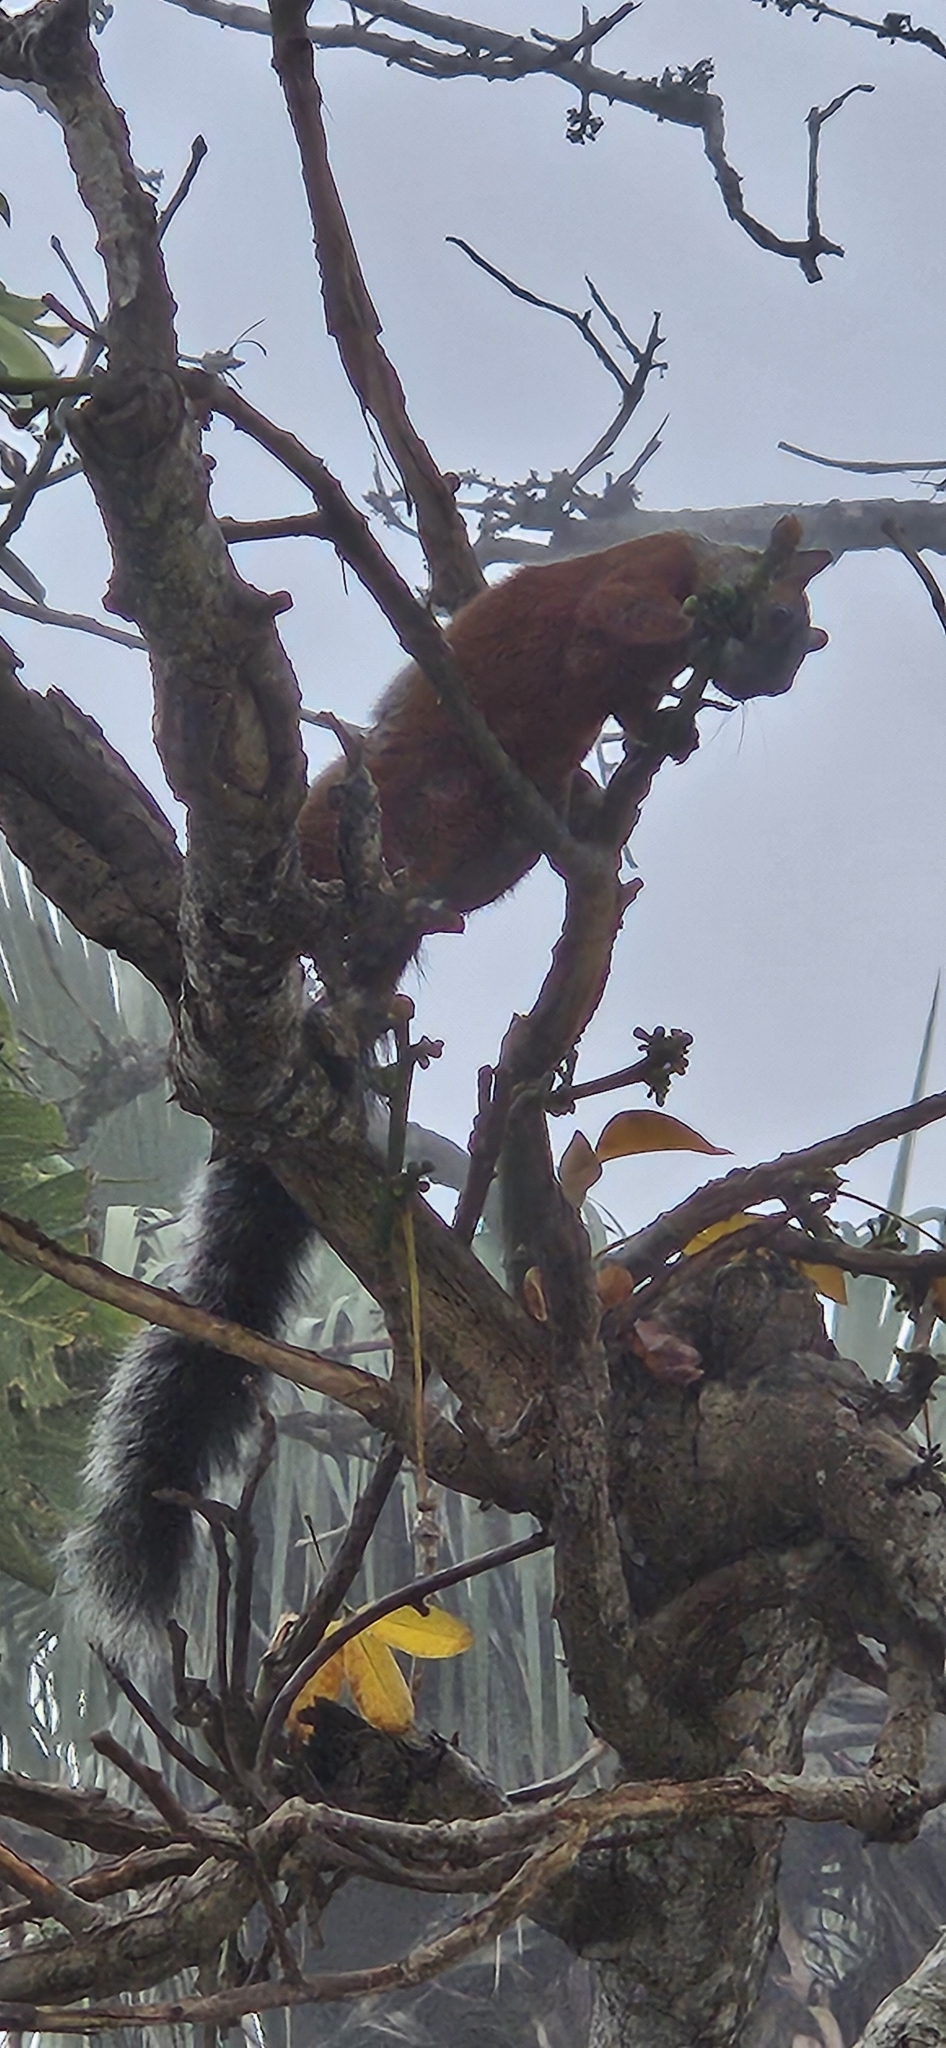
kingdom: Animalia
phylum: Chordata
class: Mammalia
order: Rodentia
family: Sciuridae
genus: Sciurus
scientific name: Sciurus aureogaster
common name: Red-bellied squirrel
